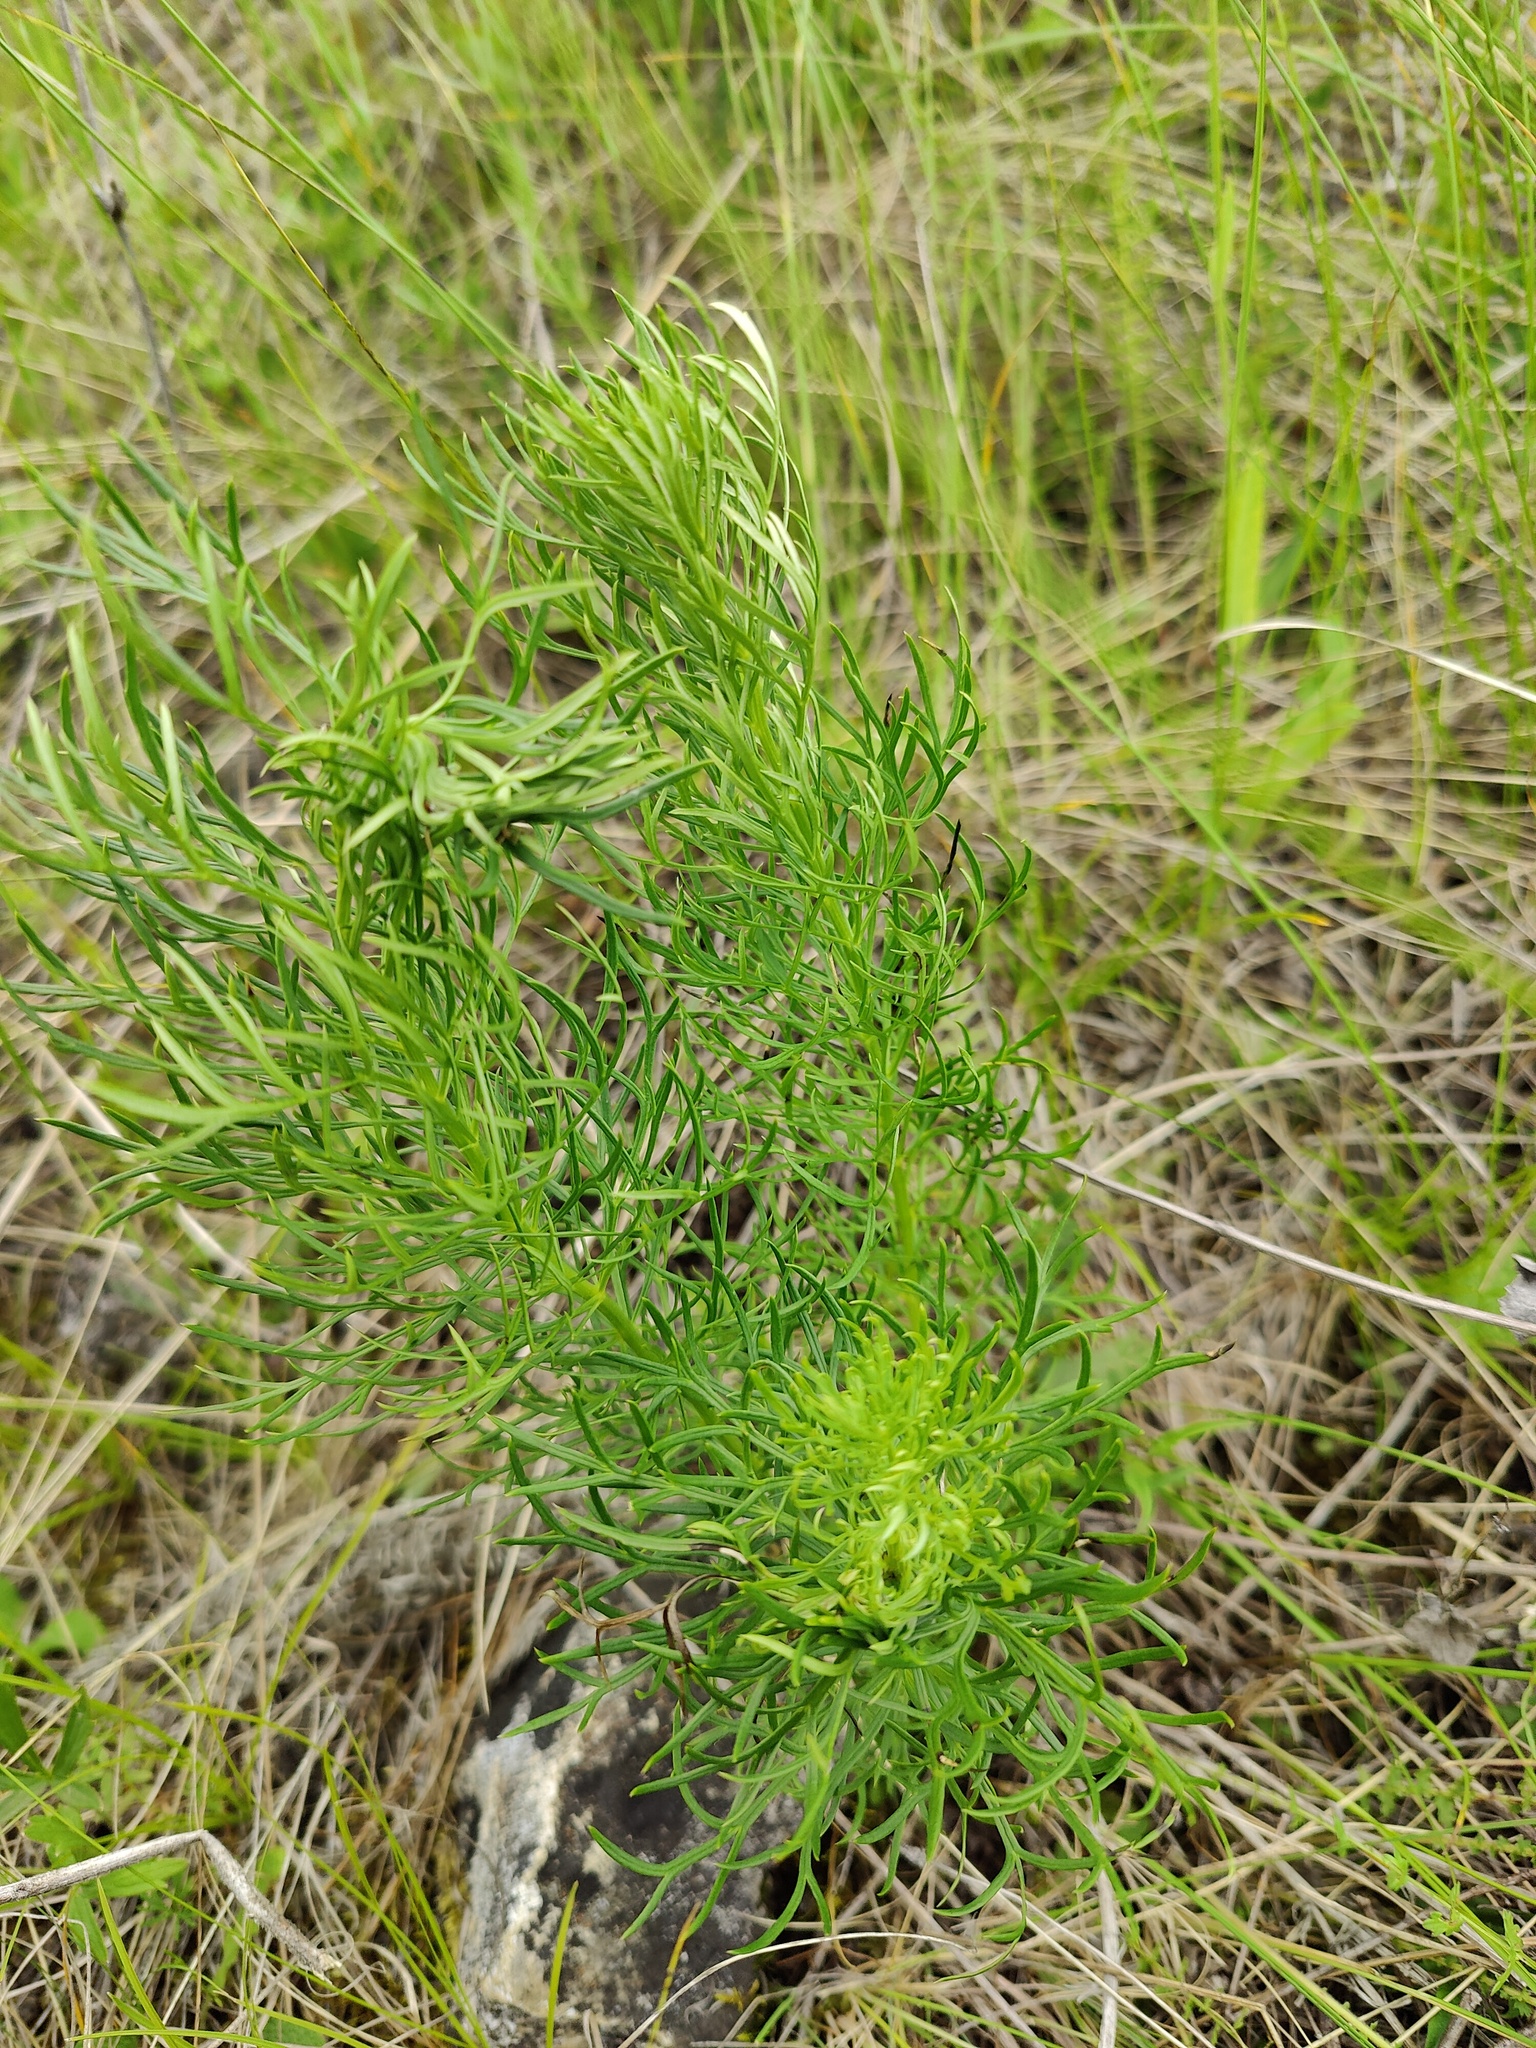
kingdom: Plantae
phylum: Tracheophyta
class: Magnoliopsida
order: Ranunculales
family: Ranunculaceae
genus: Adonis
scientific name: Adonis vernalis
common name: Yellow pheasants-eye
